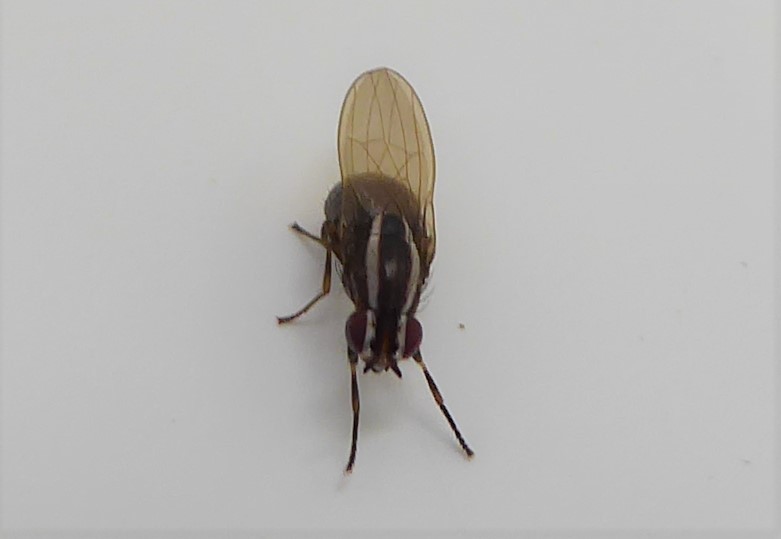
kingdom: Animalia
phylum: Arthropoda
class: Insecta
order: Diptera
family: Lauxaniidae
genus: Poecilohetaerella
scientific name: Poecilohetaerella dubiosa
